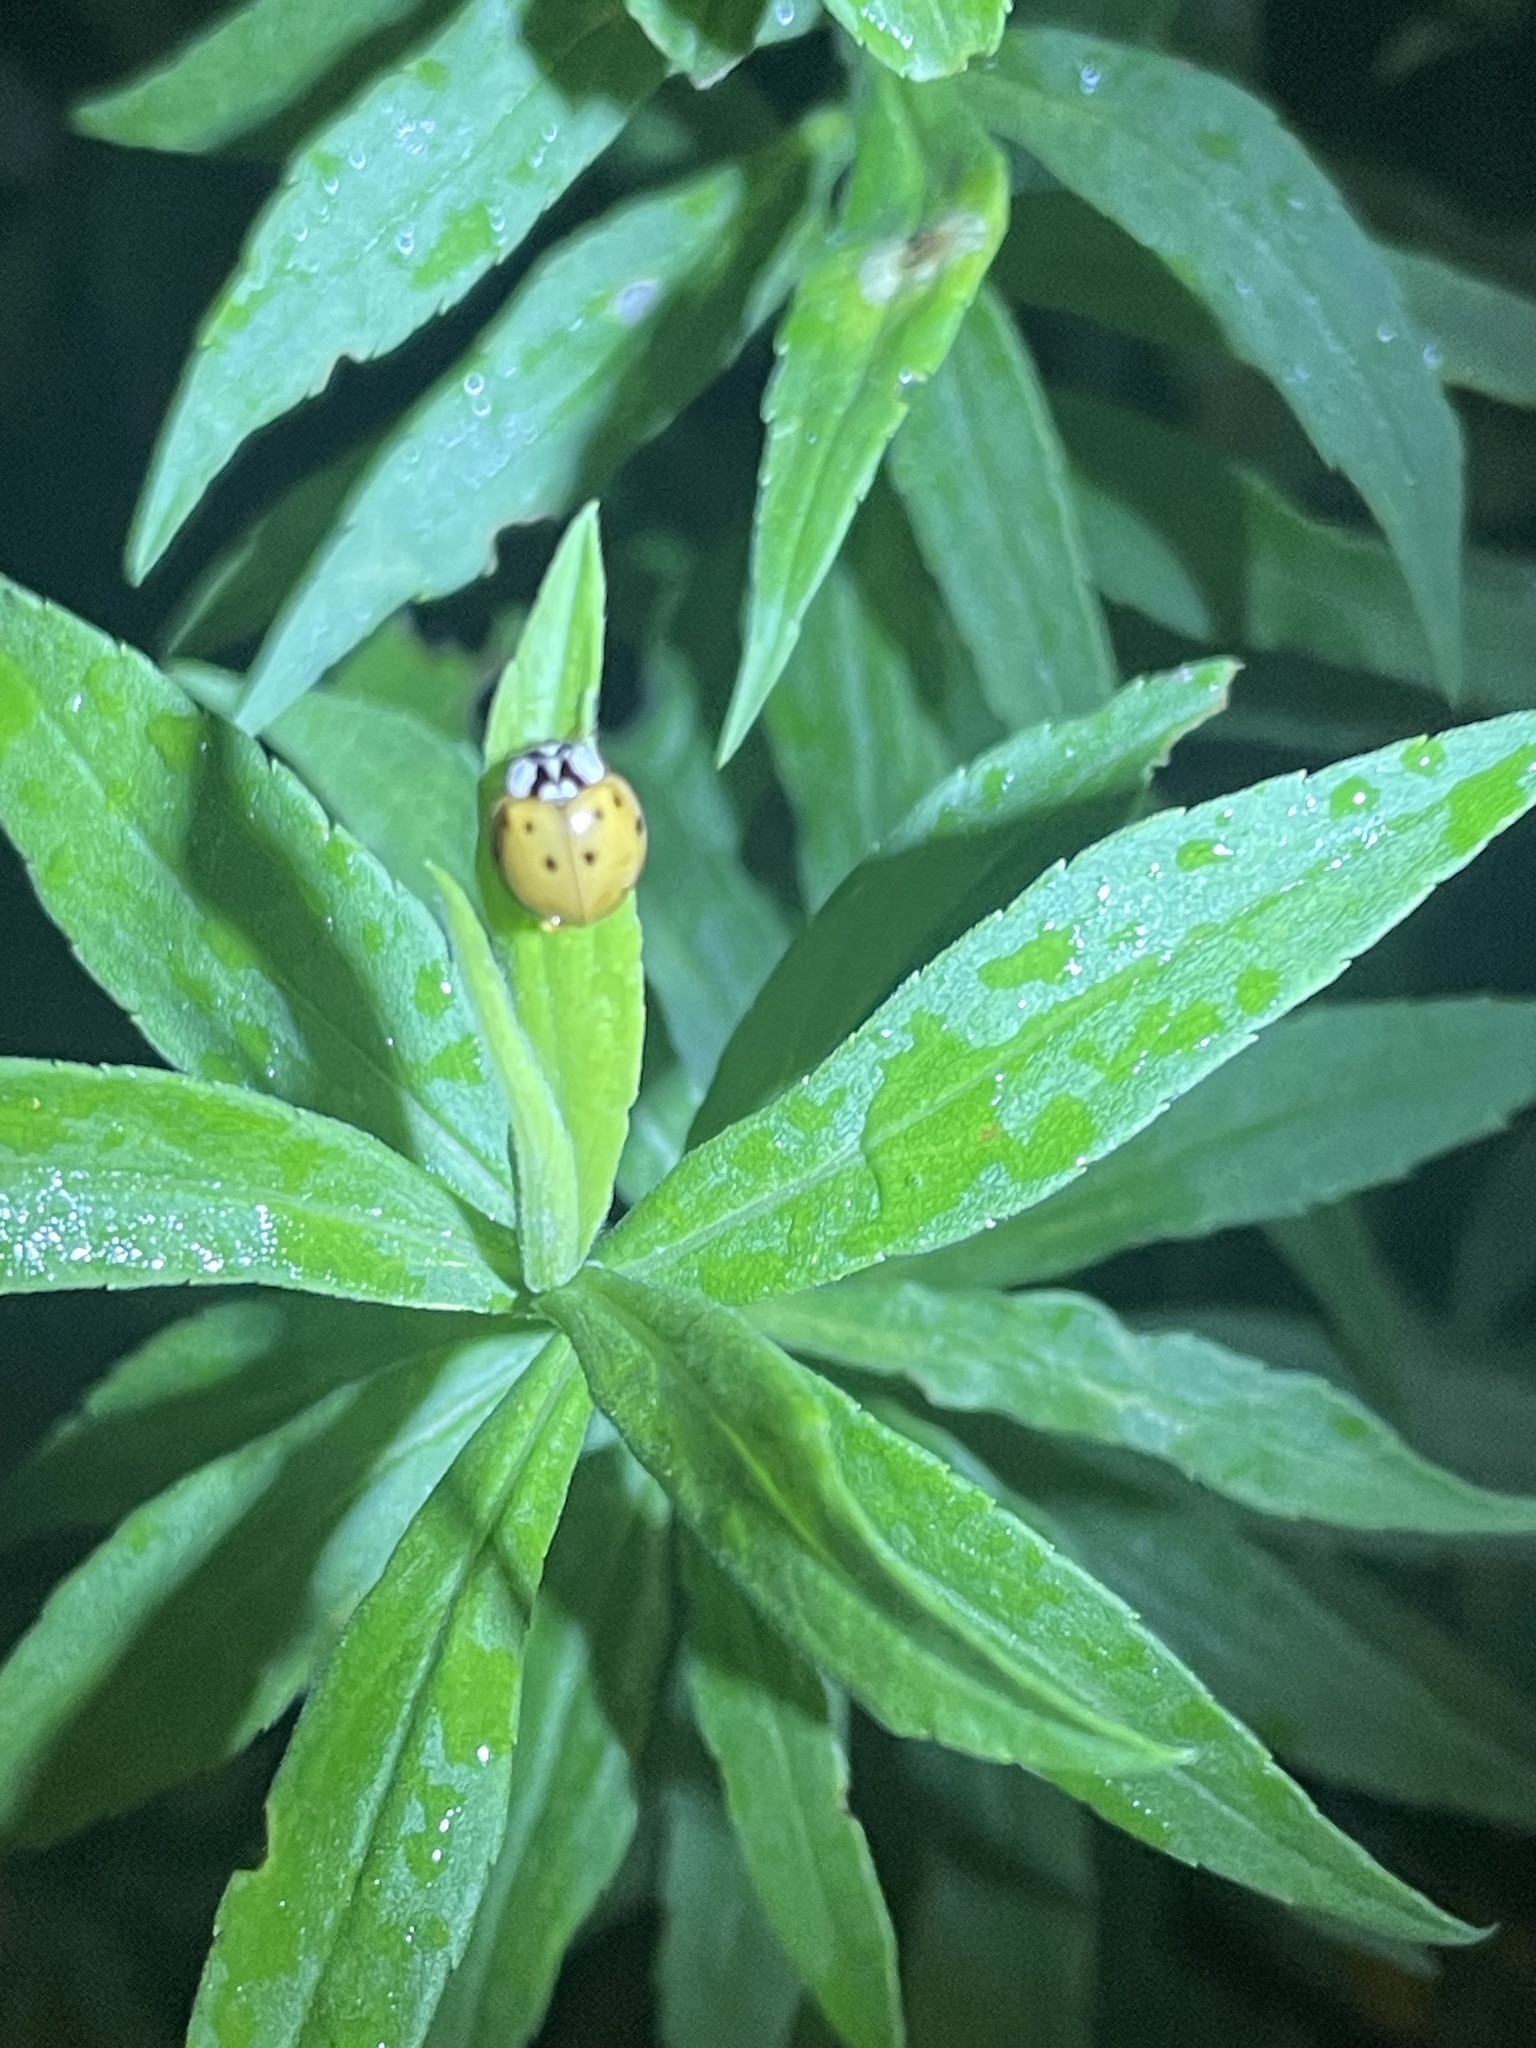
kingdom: Animalia
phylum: Arthropoda
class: Insecta
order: Coleoptera
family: Coccinellidae
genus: Harmonia
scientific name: Harmonia axyridis
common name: Harlequin ladybird
